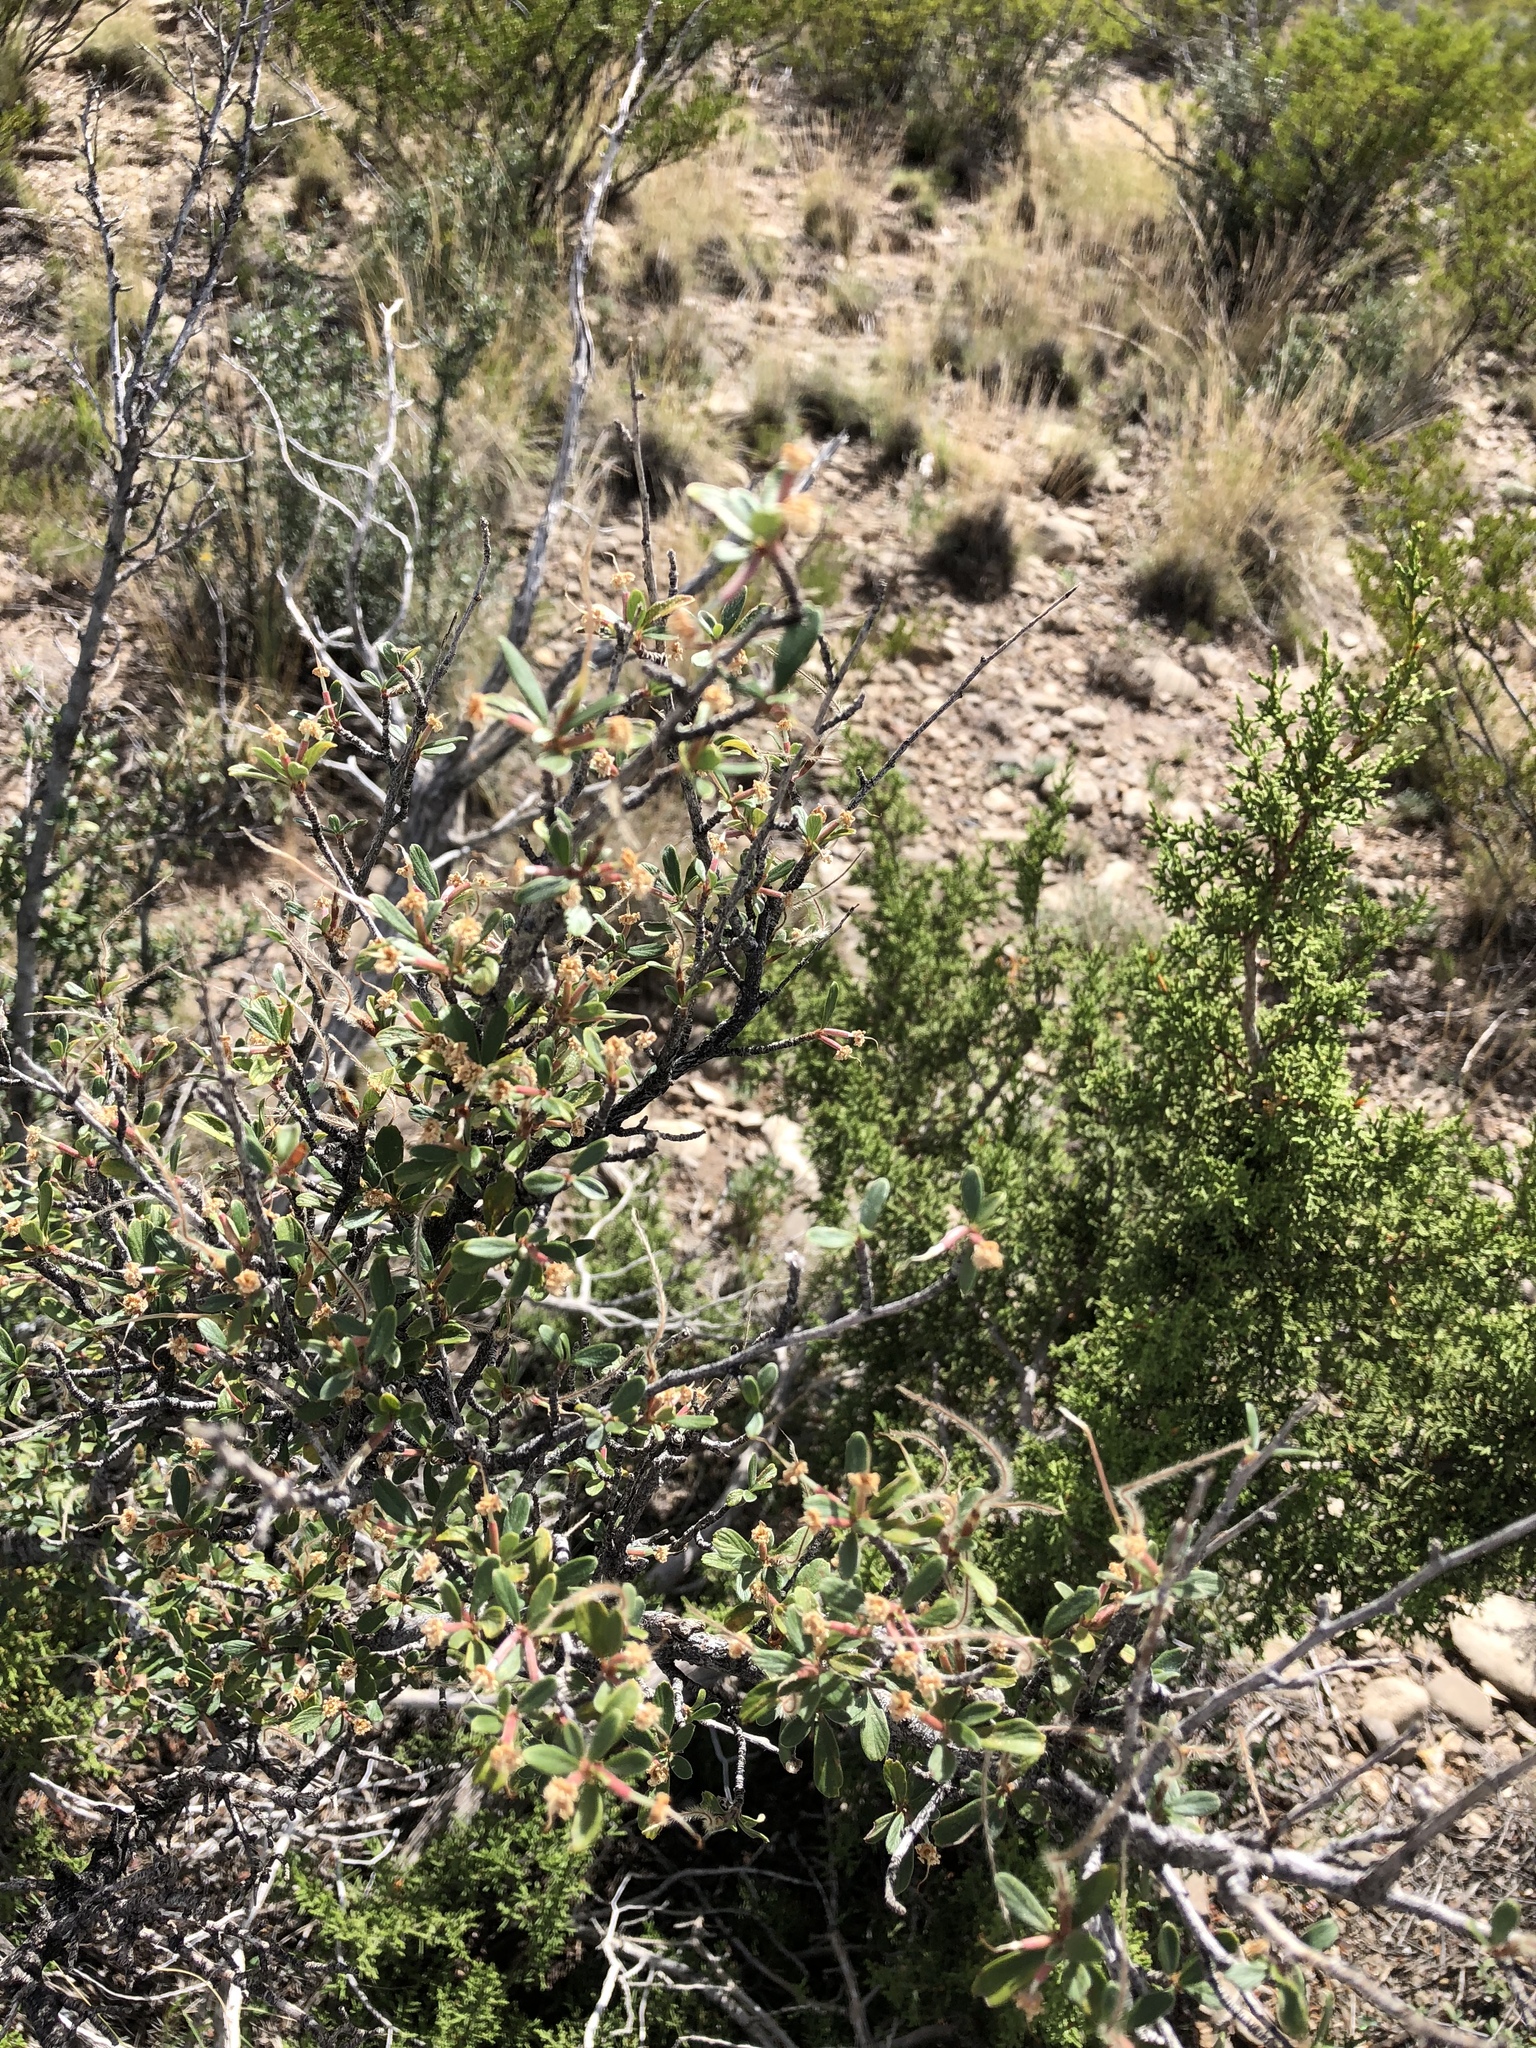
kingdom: Plantae
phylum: Tracheophyta
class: Magnoliopsida
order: Rosales
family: Rosaceae
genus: Cercocarpus
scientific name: Cercocarpus breviflorus
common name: Wright's mountain-mahogany
